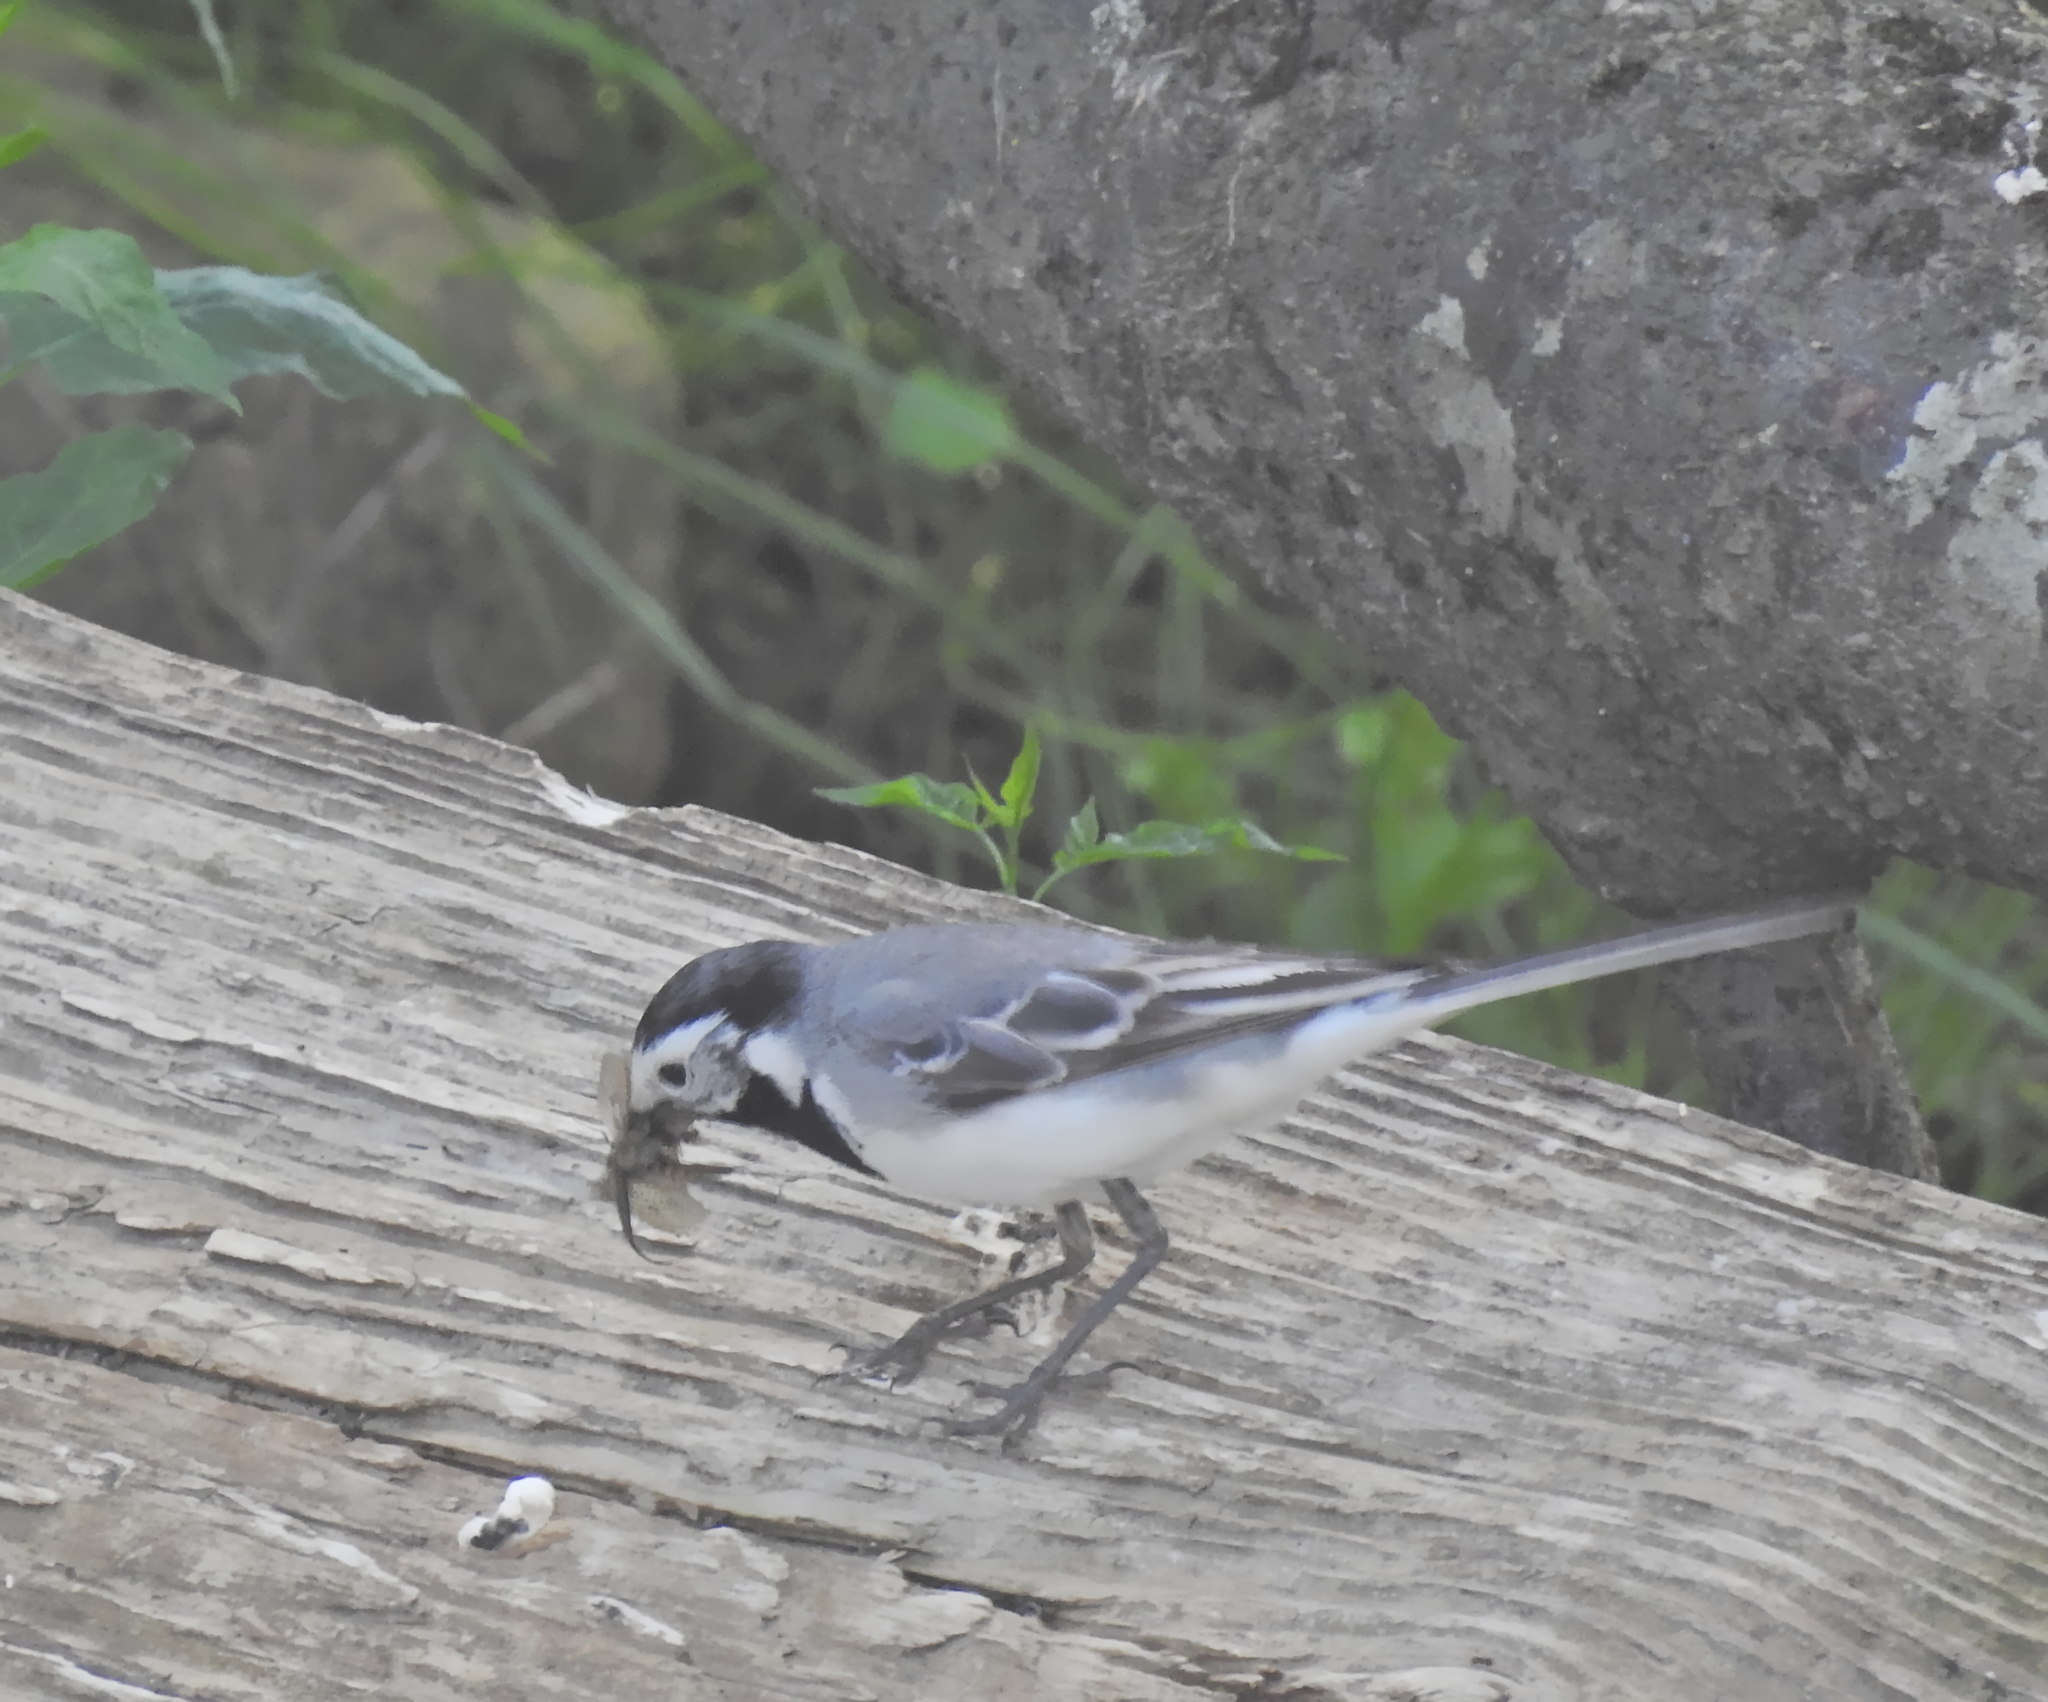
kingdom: Animalia
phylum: Chordata
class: Aves
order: Passeriformes
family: Motacillidae
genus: Motacilla
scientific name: Motacilla alba
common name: White wagtail
